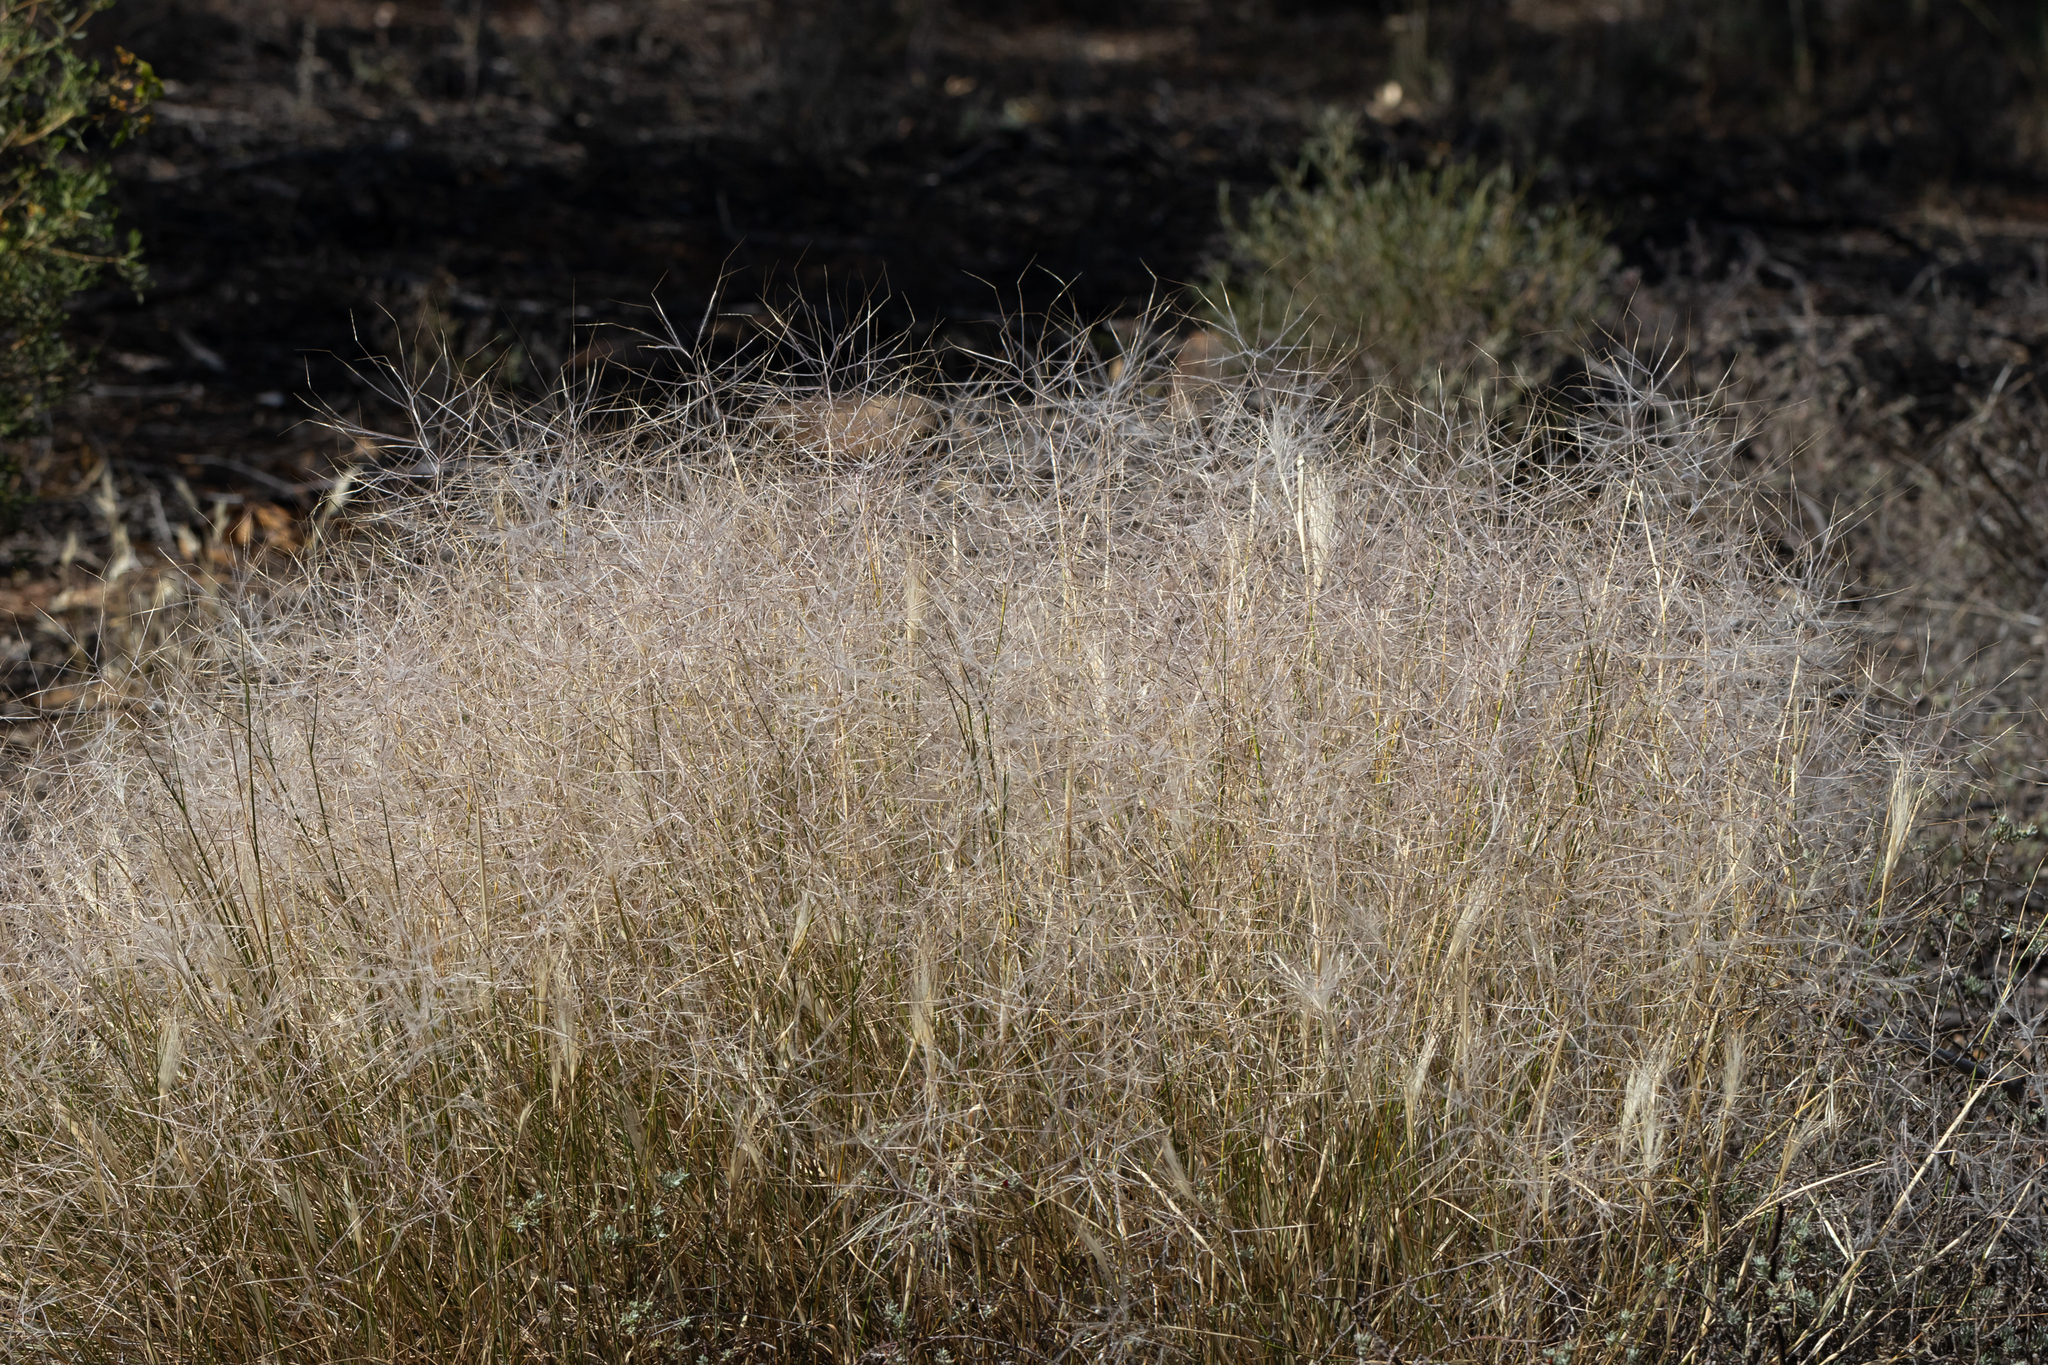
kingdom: Plantae
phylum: Tracheophyta
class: Liliopsida
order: Poales
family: Poaceae
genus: Austrostipa
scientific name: Austrostipa elegantissima
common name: Feather spear grass
